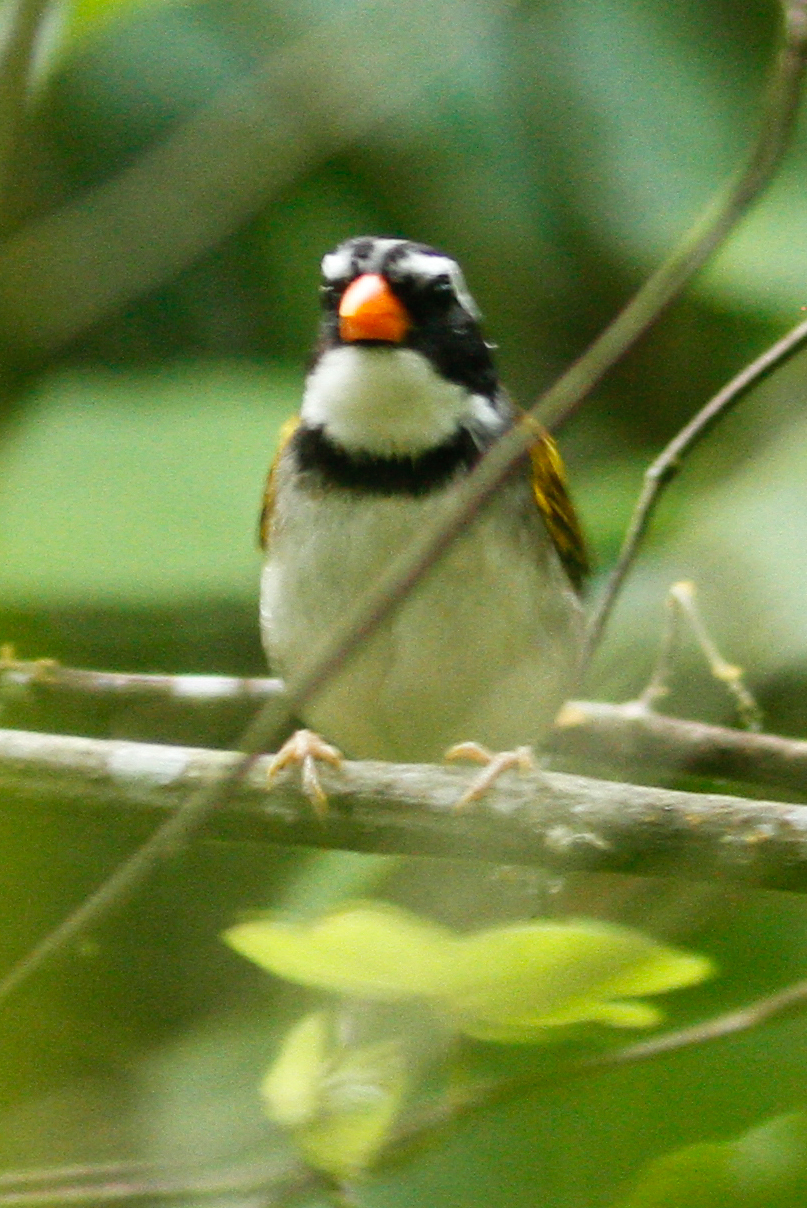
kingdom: Animalia
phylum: Chordata
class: Aves
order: Passeriformes
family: Passerellidae
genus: Arremon
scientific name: Arremon aurantiirostris
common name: Orange-billed sparrow
